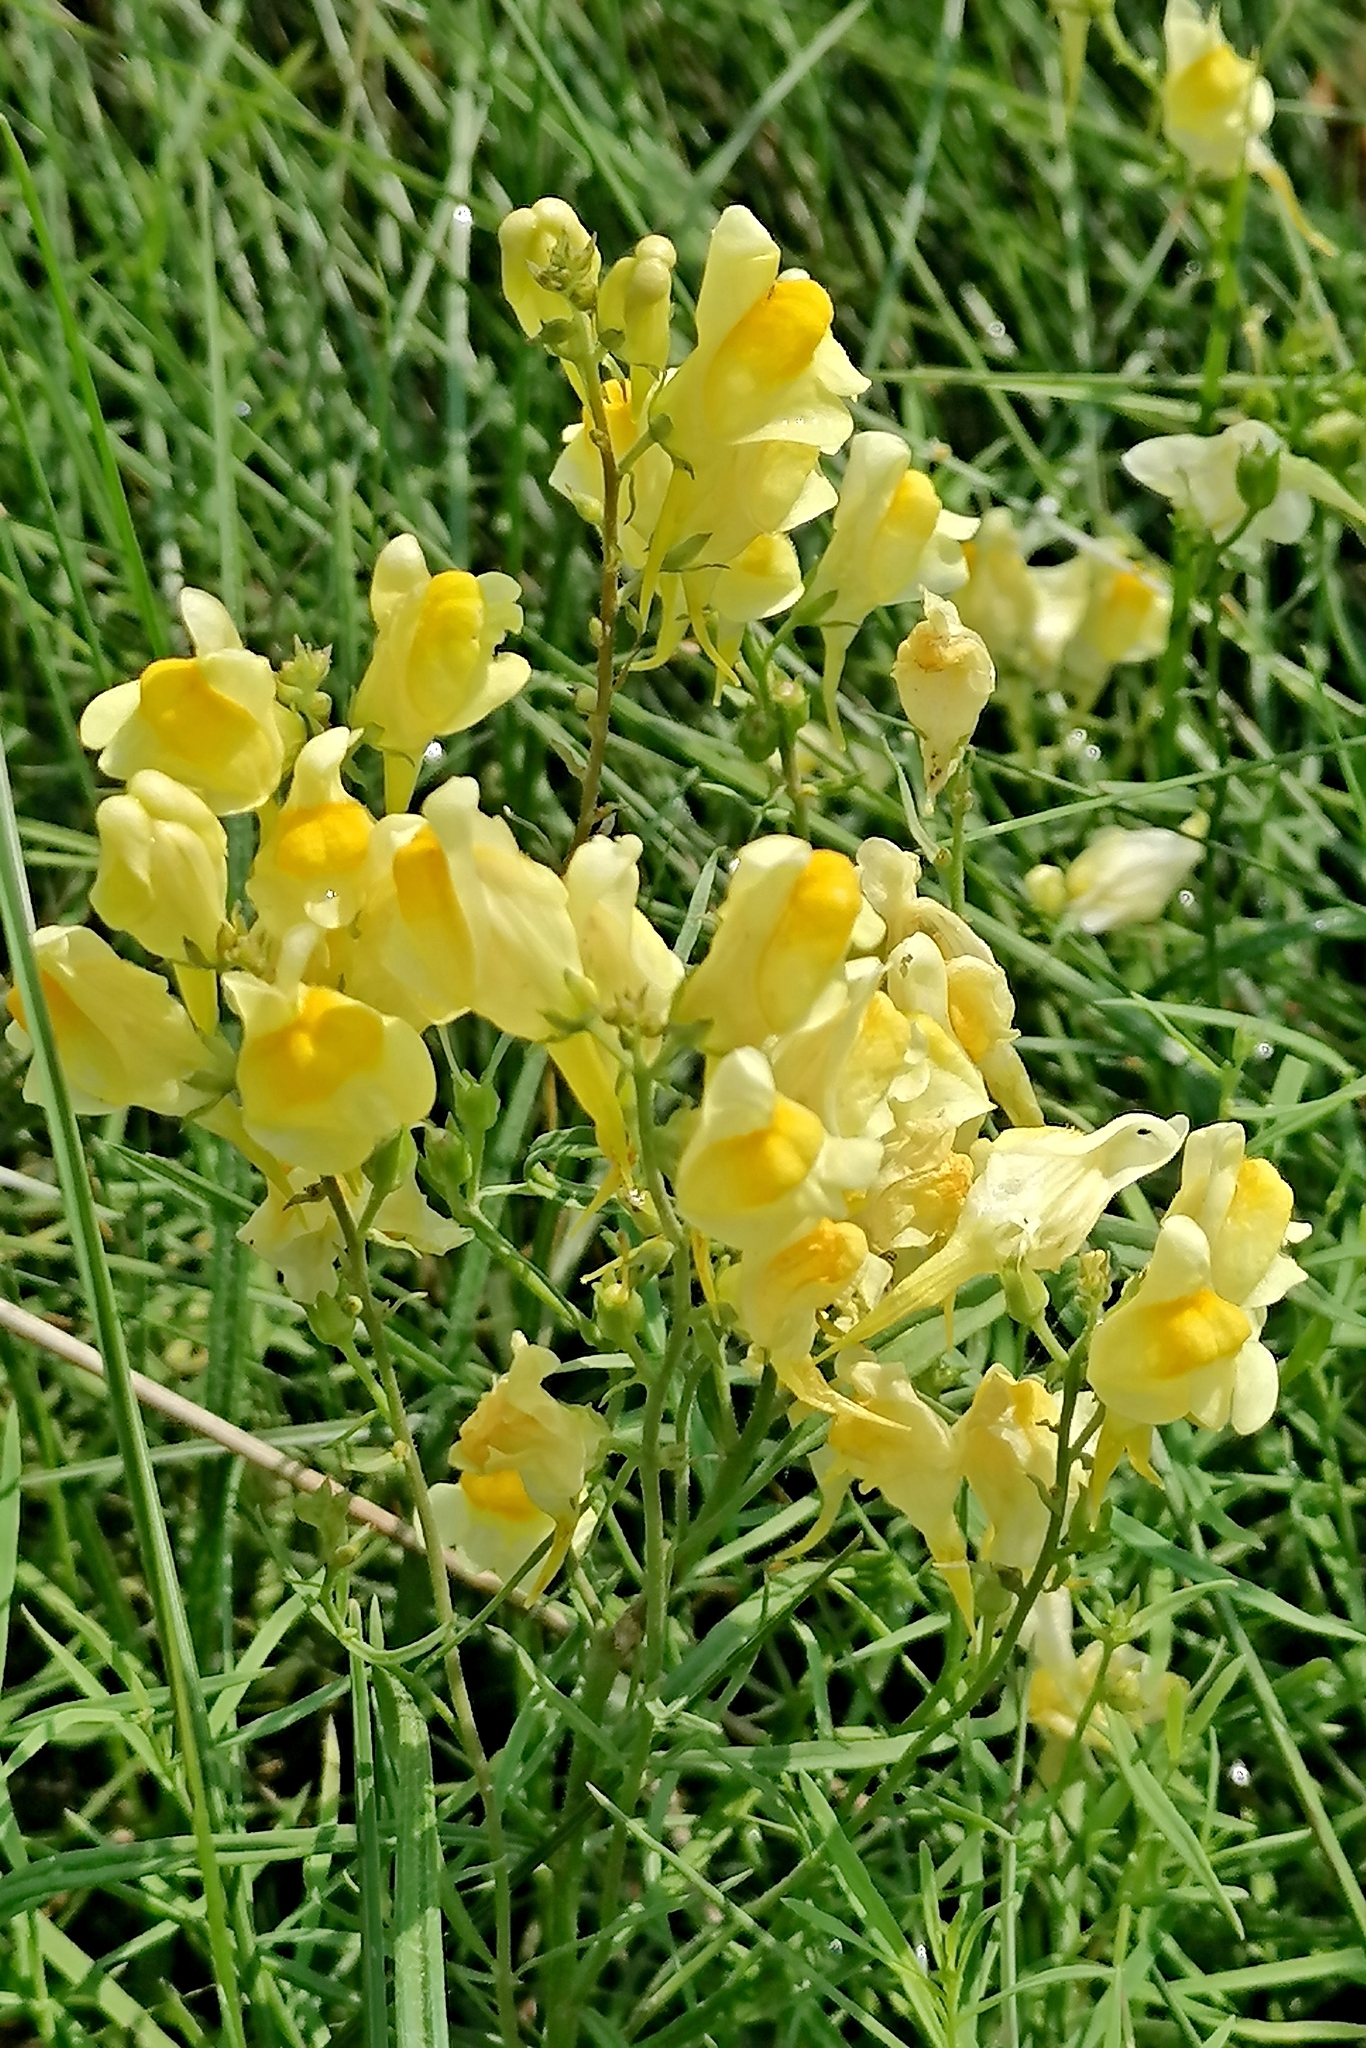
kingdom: Plantae
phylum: Tracheophyta
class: Magnoliopsida
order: Lamiales
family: Plantaginaceae
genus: Linaria
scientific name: Linaria vulgaris
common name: Butter and eggs
